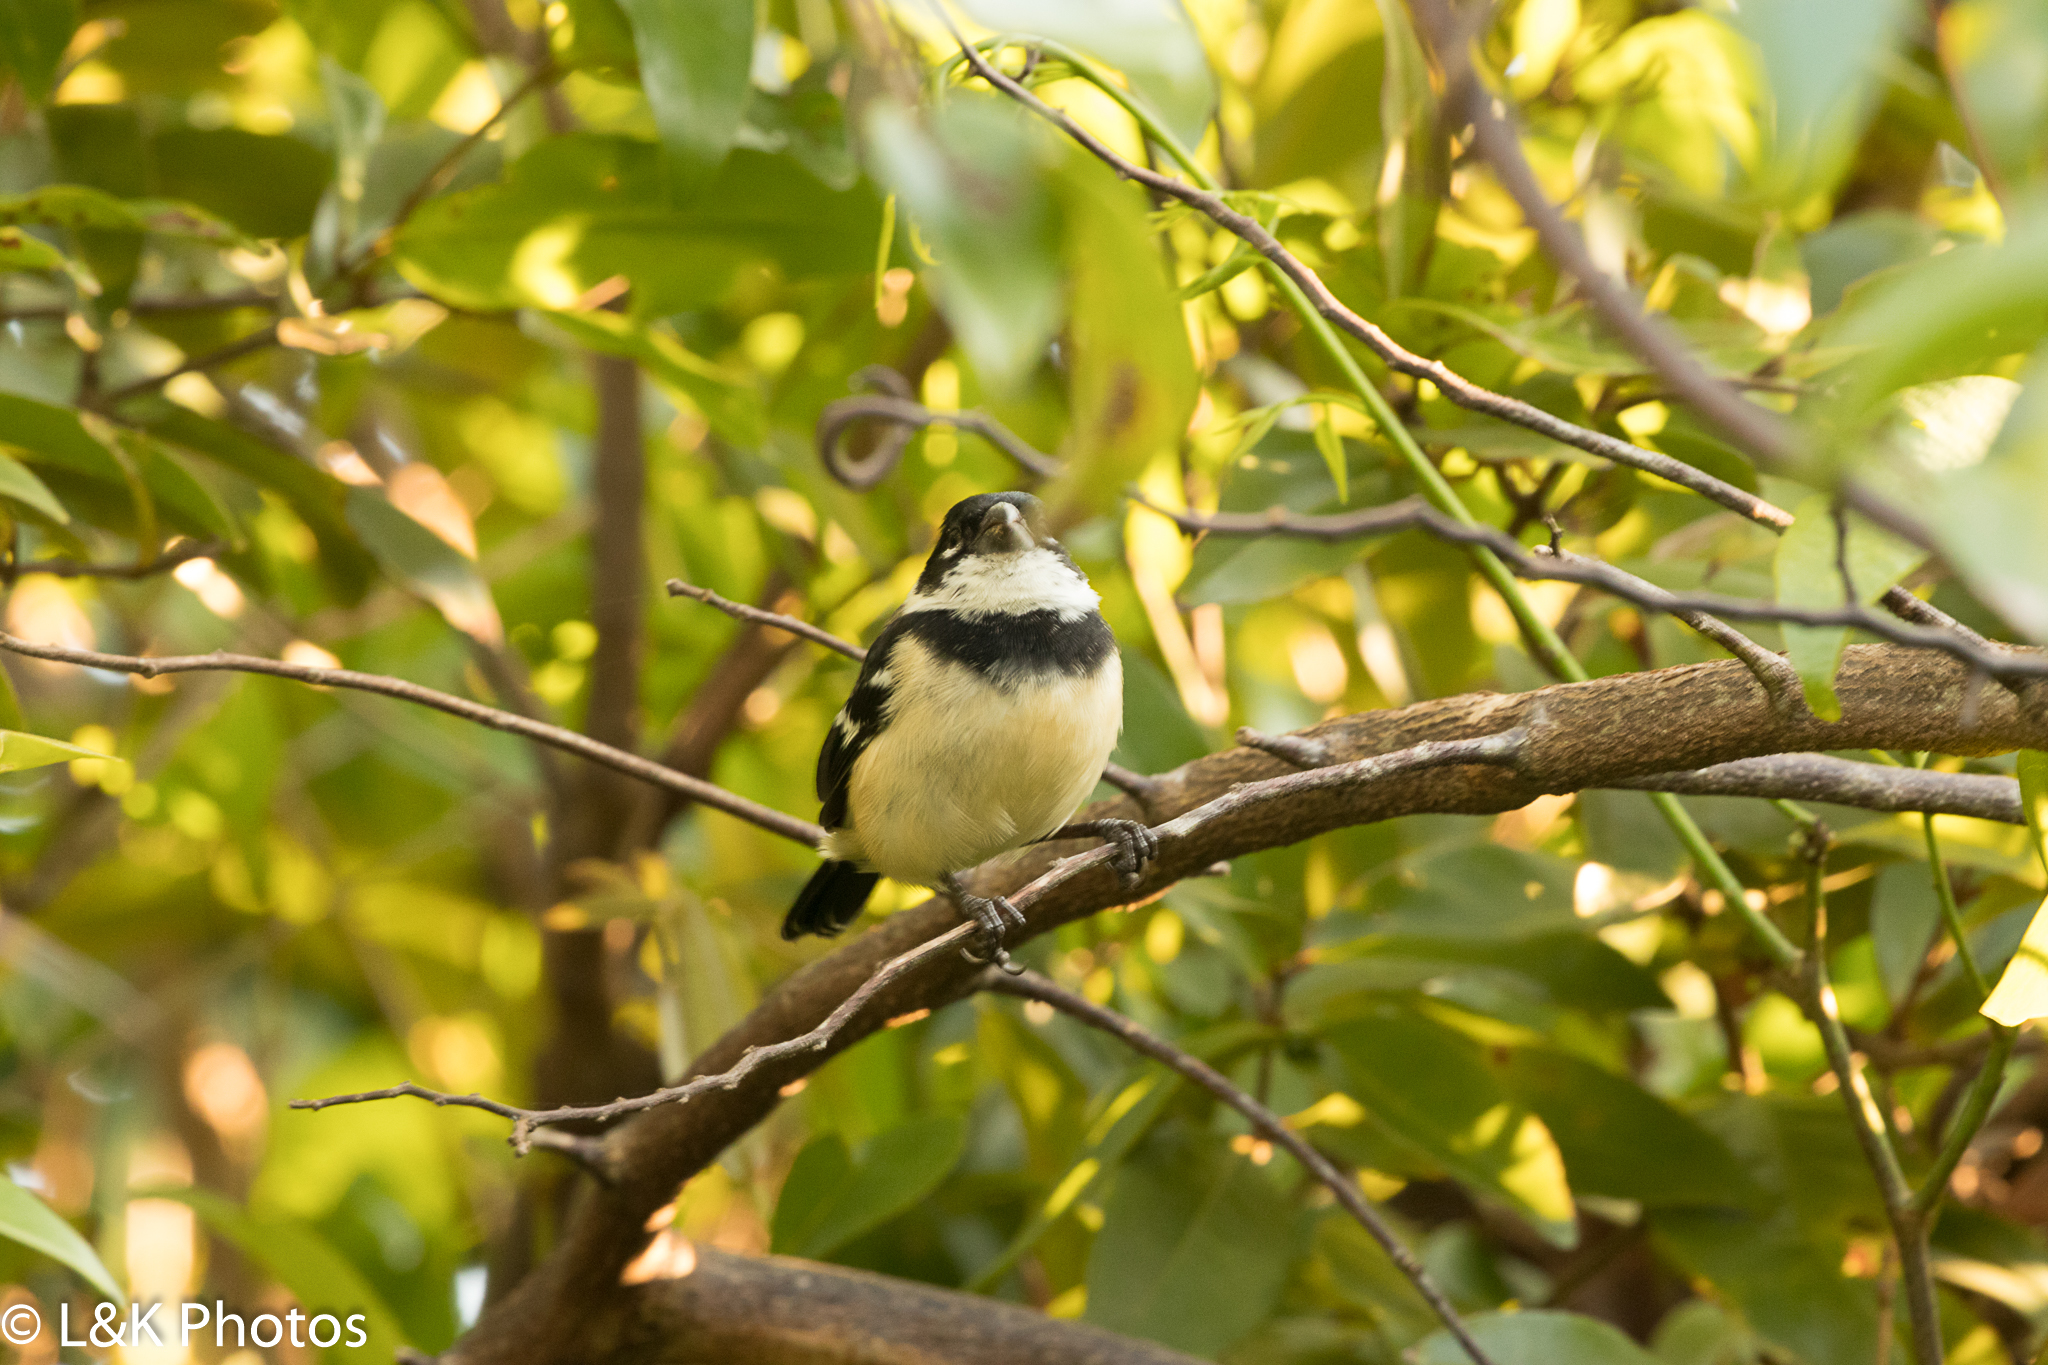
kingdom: Animalia
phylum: Chordata
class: Aves
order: Passeriformes
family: Thraupidae
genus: Sporophila
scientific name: Sporophila morelleti
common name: Morelet's seedeater
